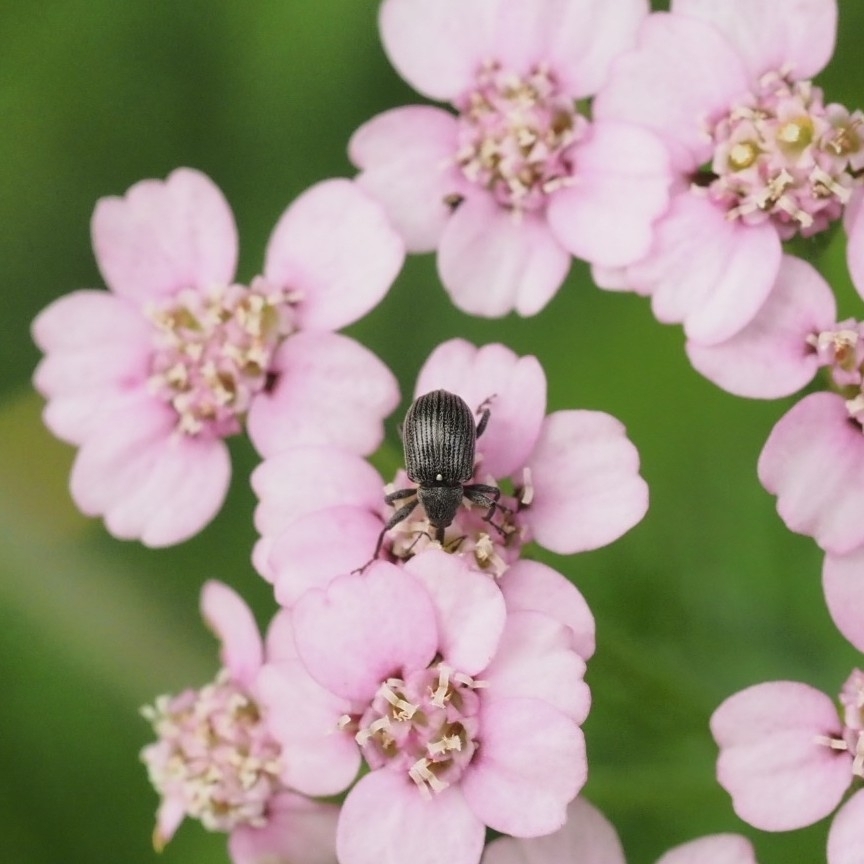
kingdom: Animalia
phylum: Arthropoda
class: Insecta
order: Coleoptera
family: Curculionidae
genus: Anthonomus
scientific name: Anthonomus rubi
